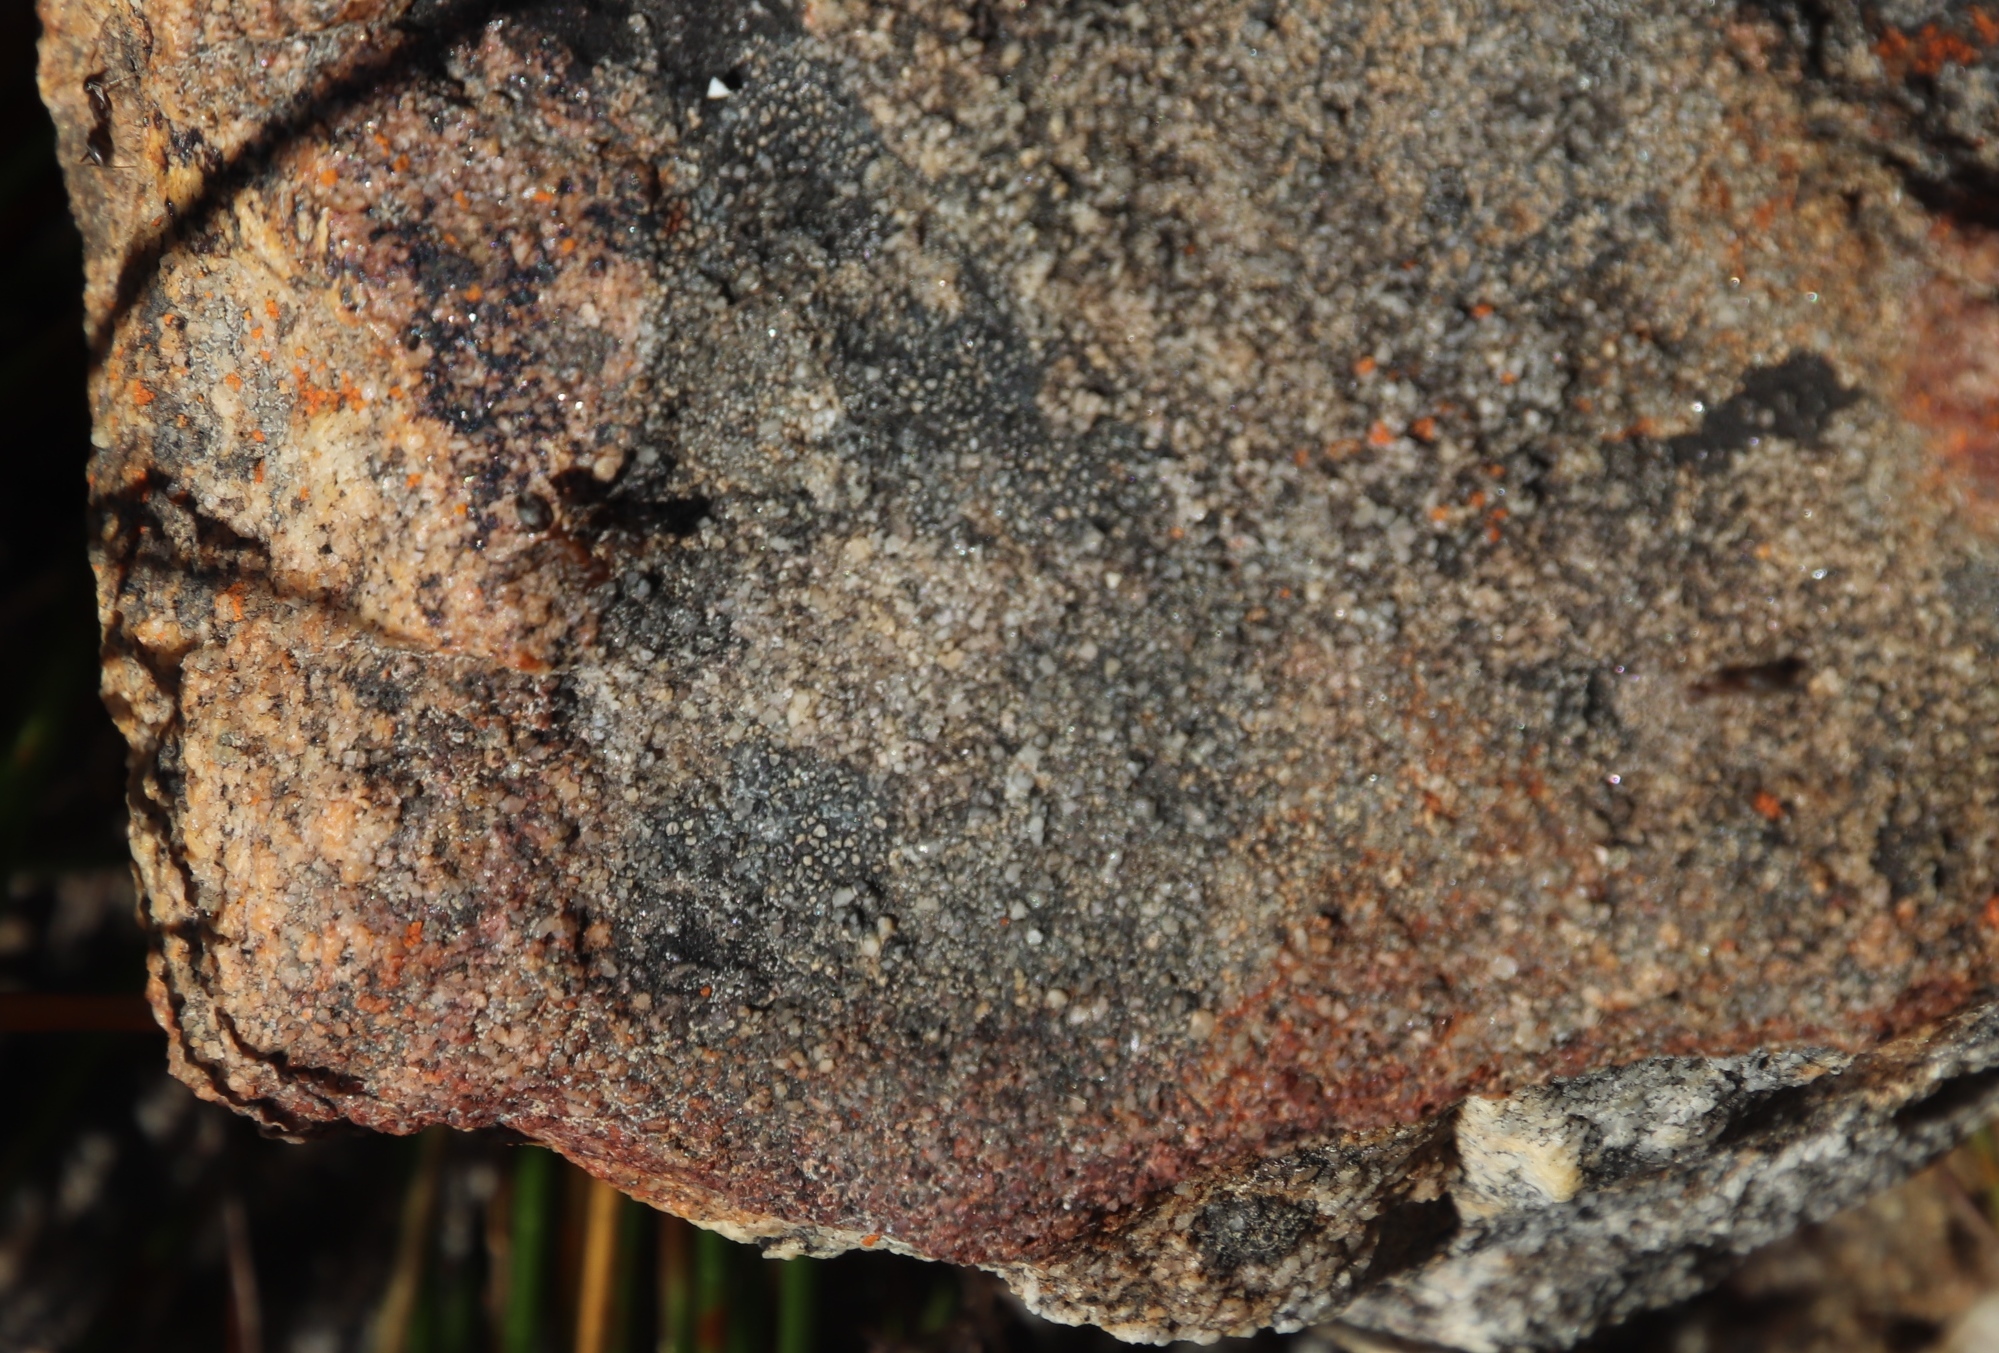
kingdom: Animalia
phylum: Arthropoda
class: Insecta
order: Hymenoptera
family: Formicidae
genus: Anoplolepis
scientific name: Anoplolepis steingroeveri
